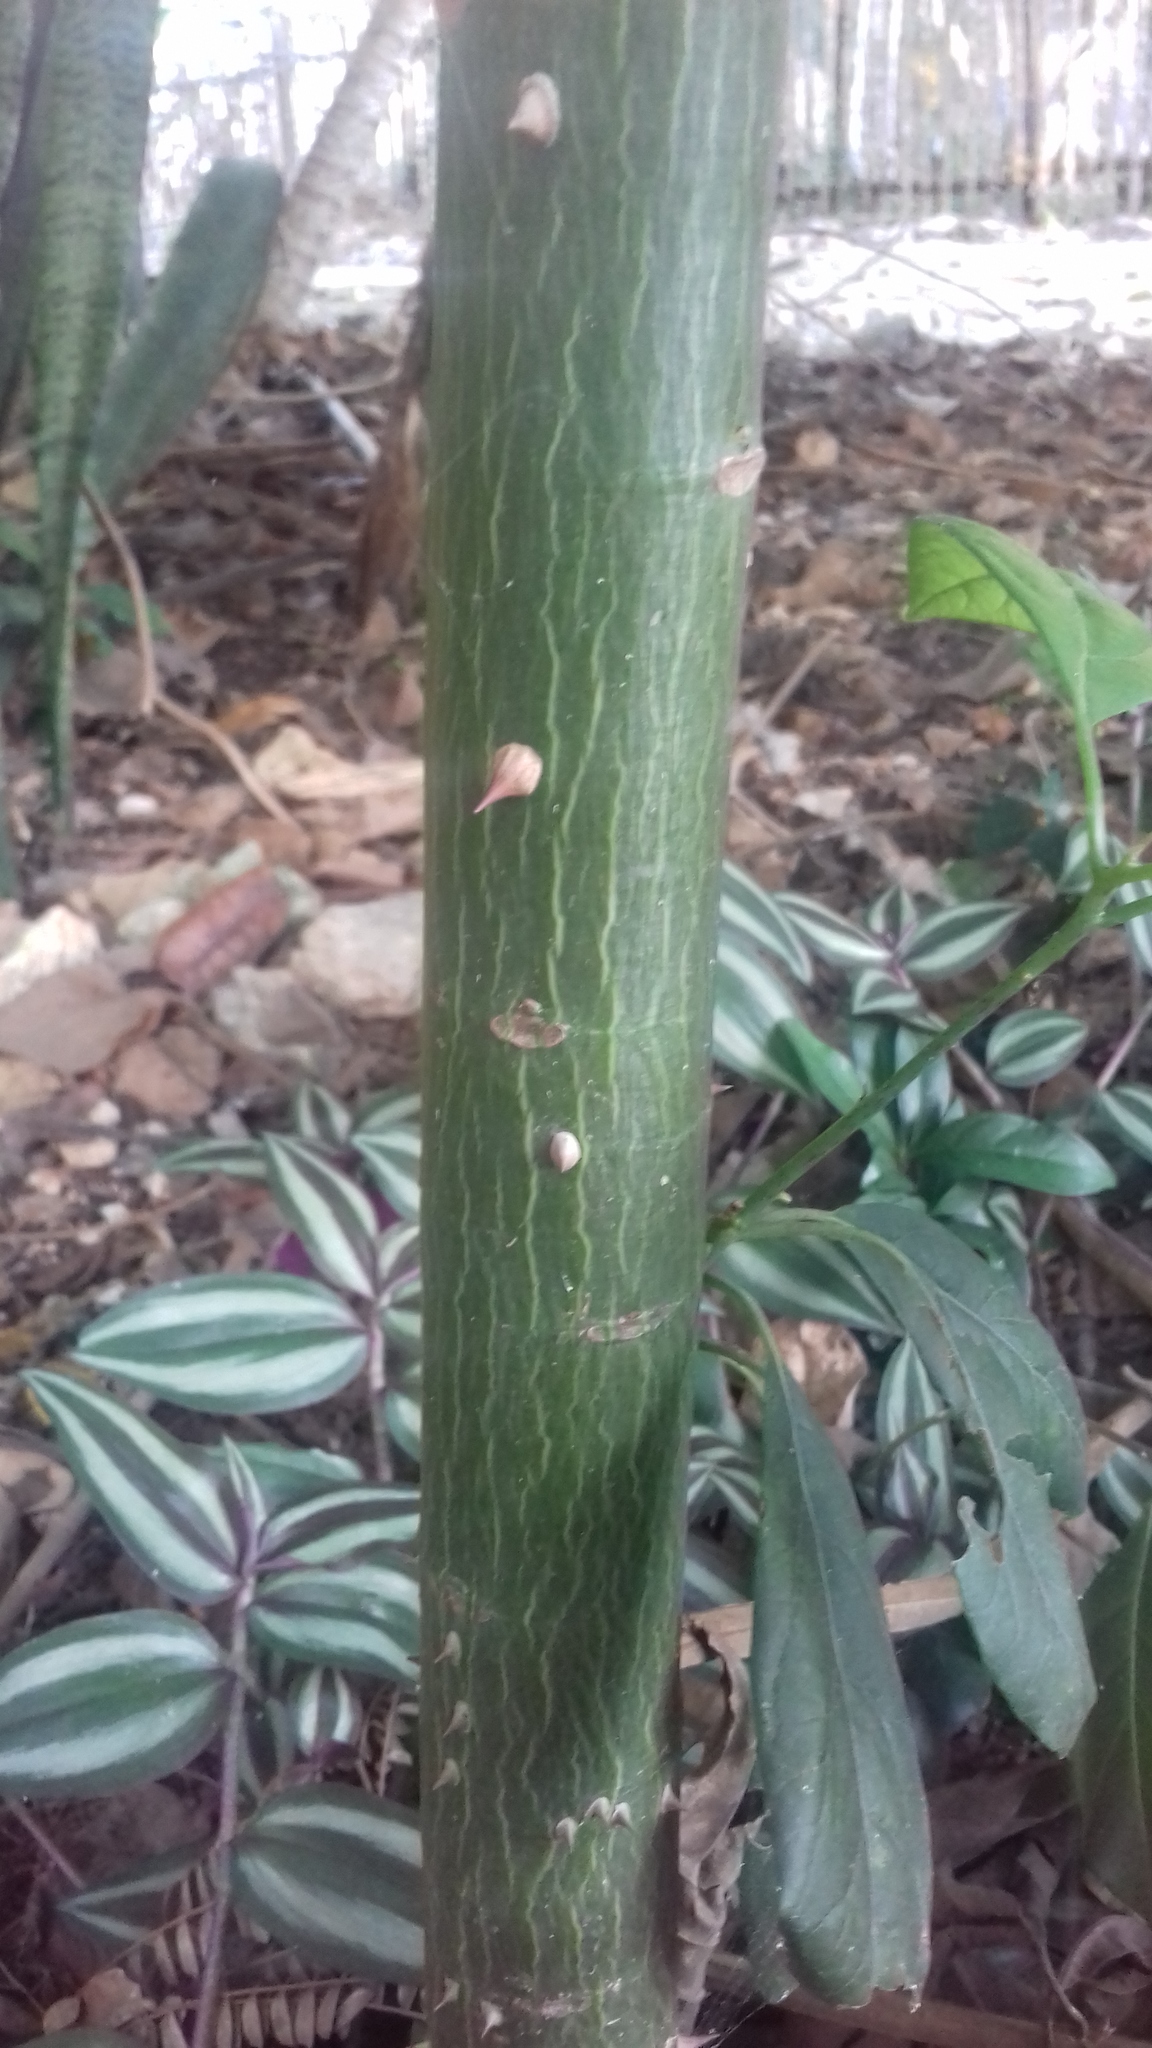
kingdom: Plantae
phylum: Tracheophyta
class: Magnoliopsida
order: Malvales
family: Malvaceae
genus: Ceiba
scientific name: Ceiba pentandra
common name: Kapok
